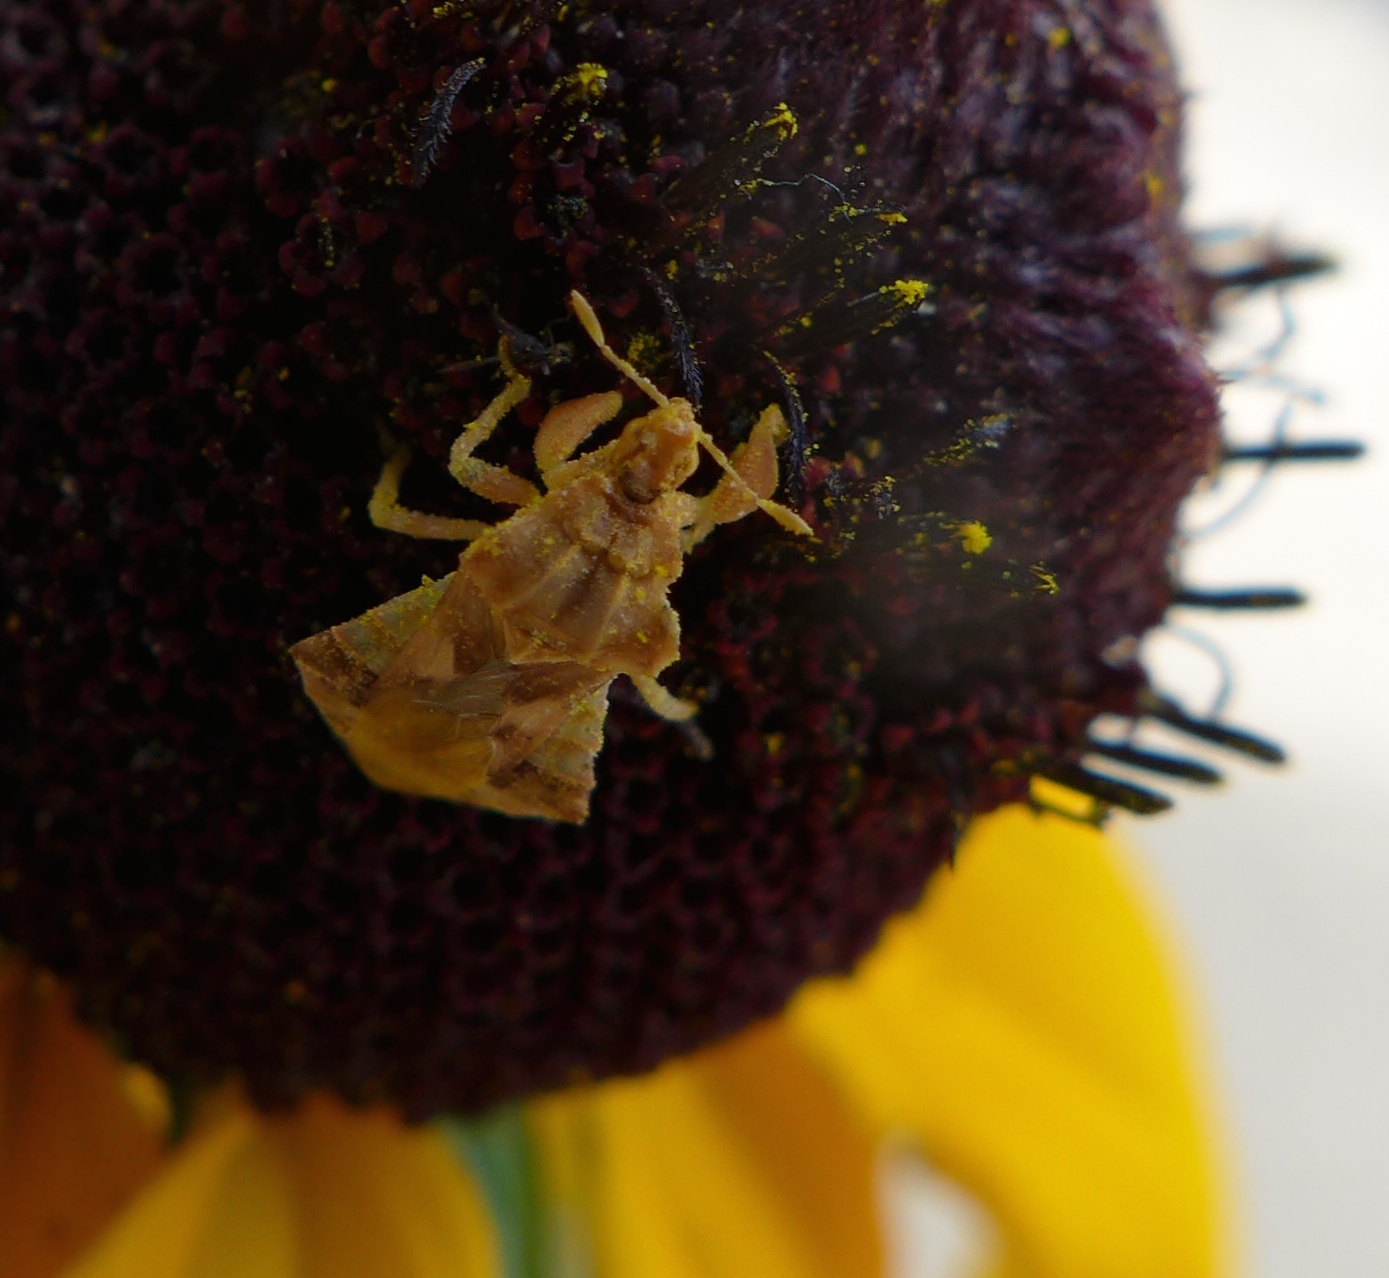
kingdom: Animalia
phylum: Arthropoda
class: Insecta
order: Hemiptera
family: Reduviidae
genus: Phymata
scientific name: Phymata pacifica
